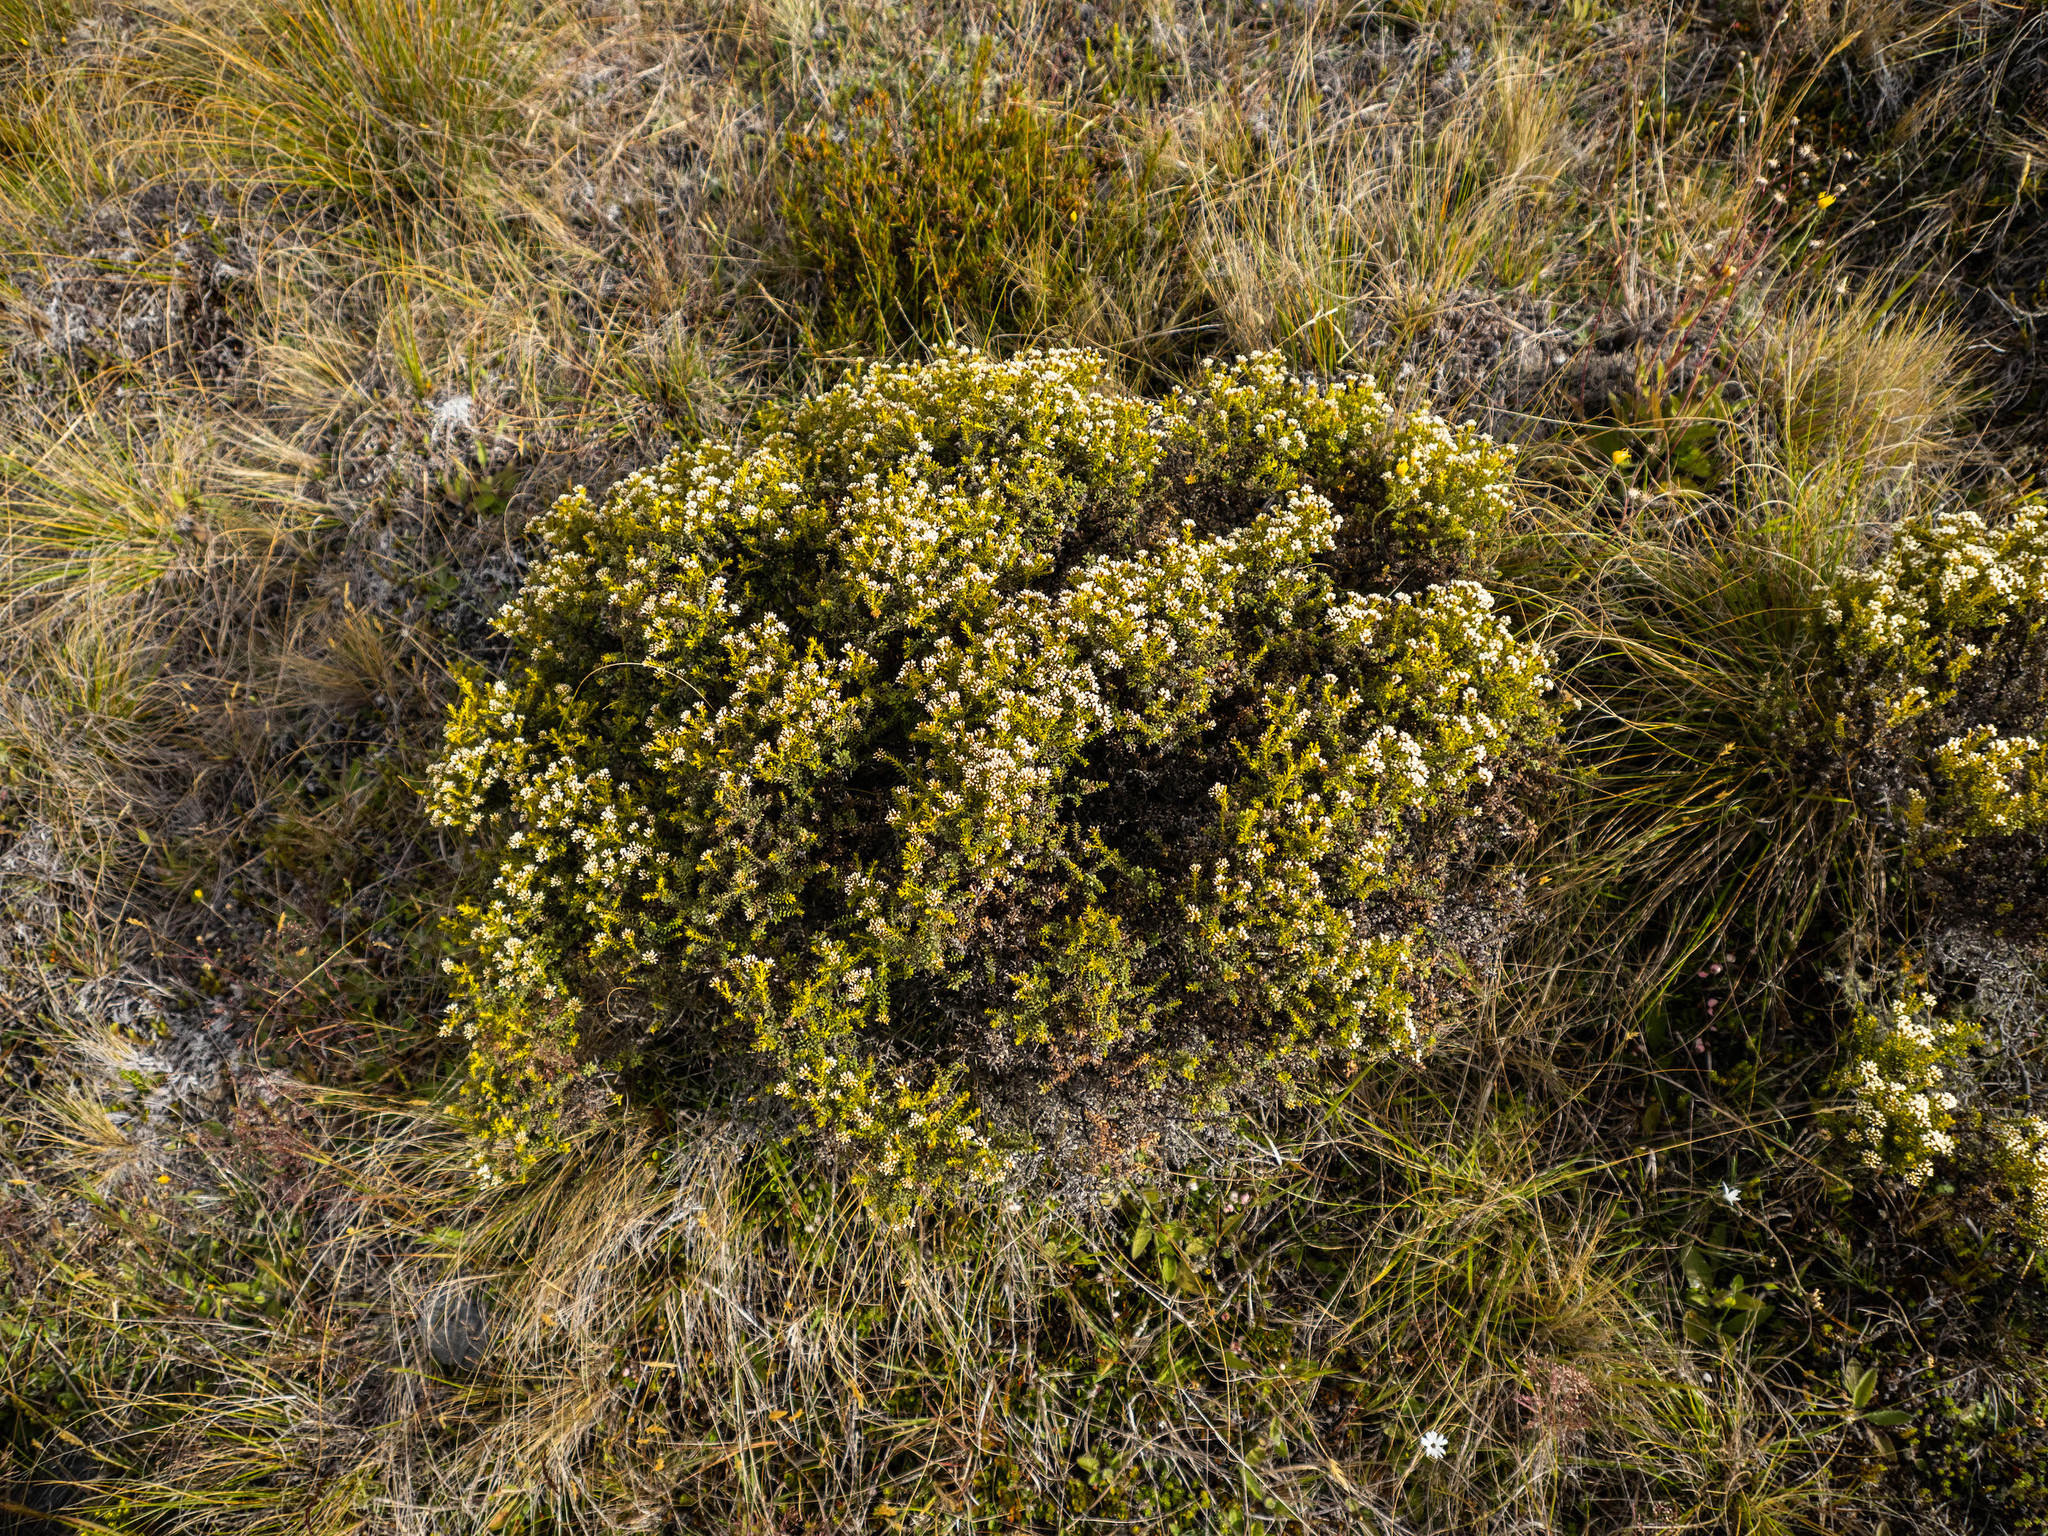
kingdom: Plantae
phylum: Tracheophyta
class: Magnoliopsida
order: Asterales
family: Asteraceae
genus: Ozothamnus
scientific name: Ozothamnus leptophyllus
